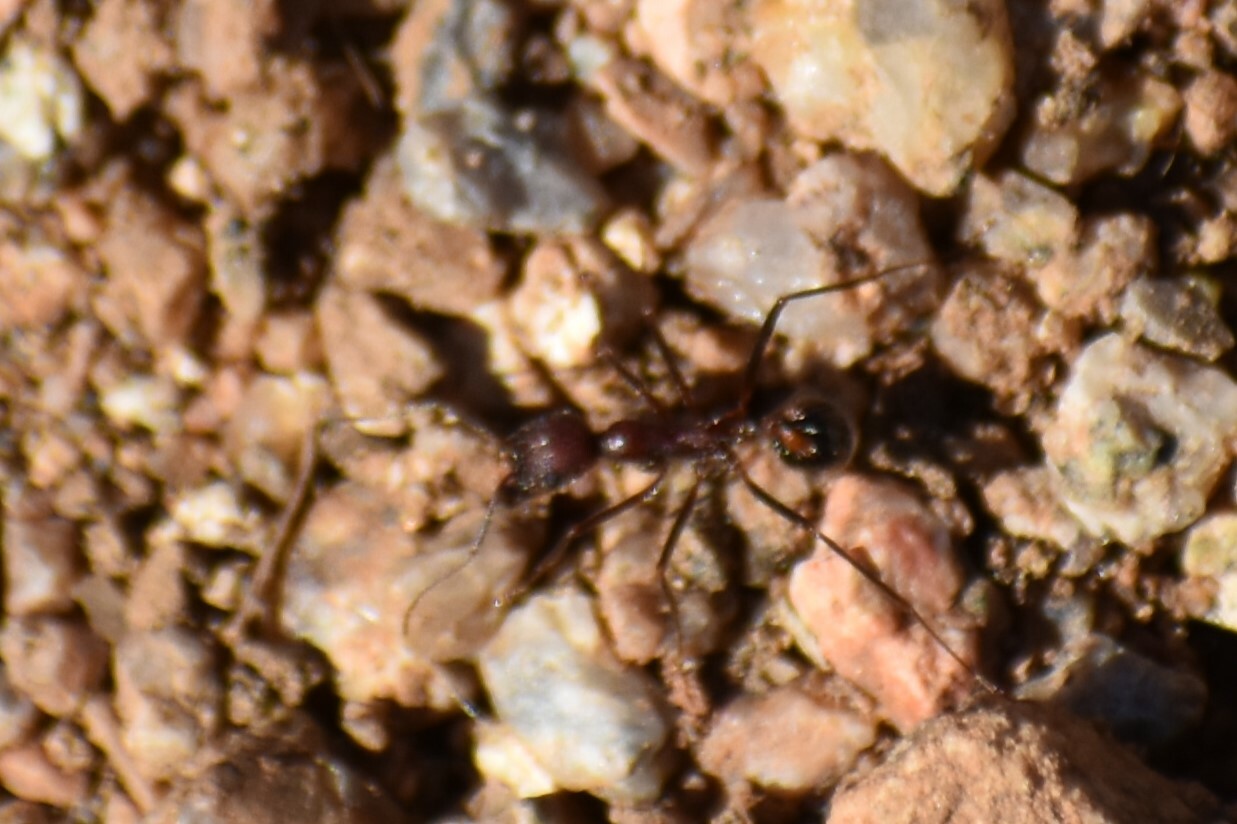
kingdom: Animalia
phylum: Arthropoda
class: Insecta
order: Hymenoptera
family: Formicidae
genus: Novomessor
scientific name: Novomessor albisetosa
